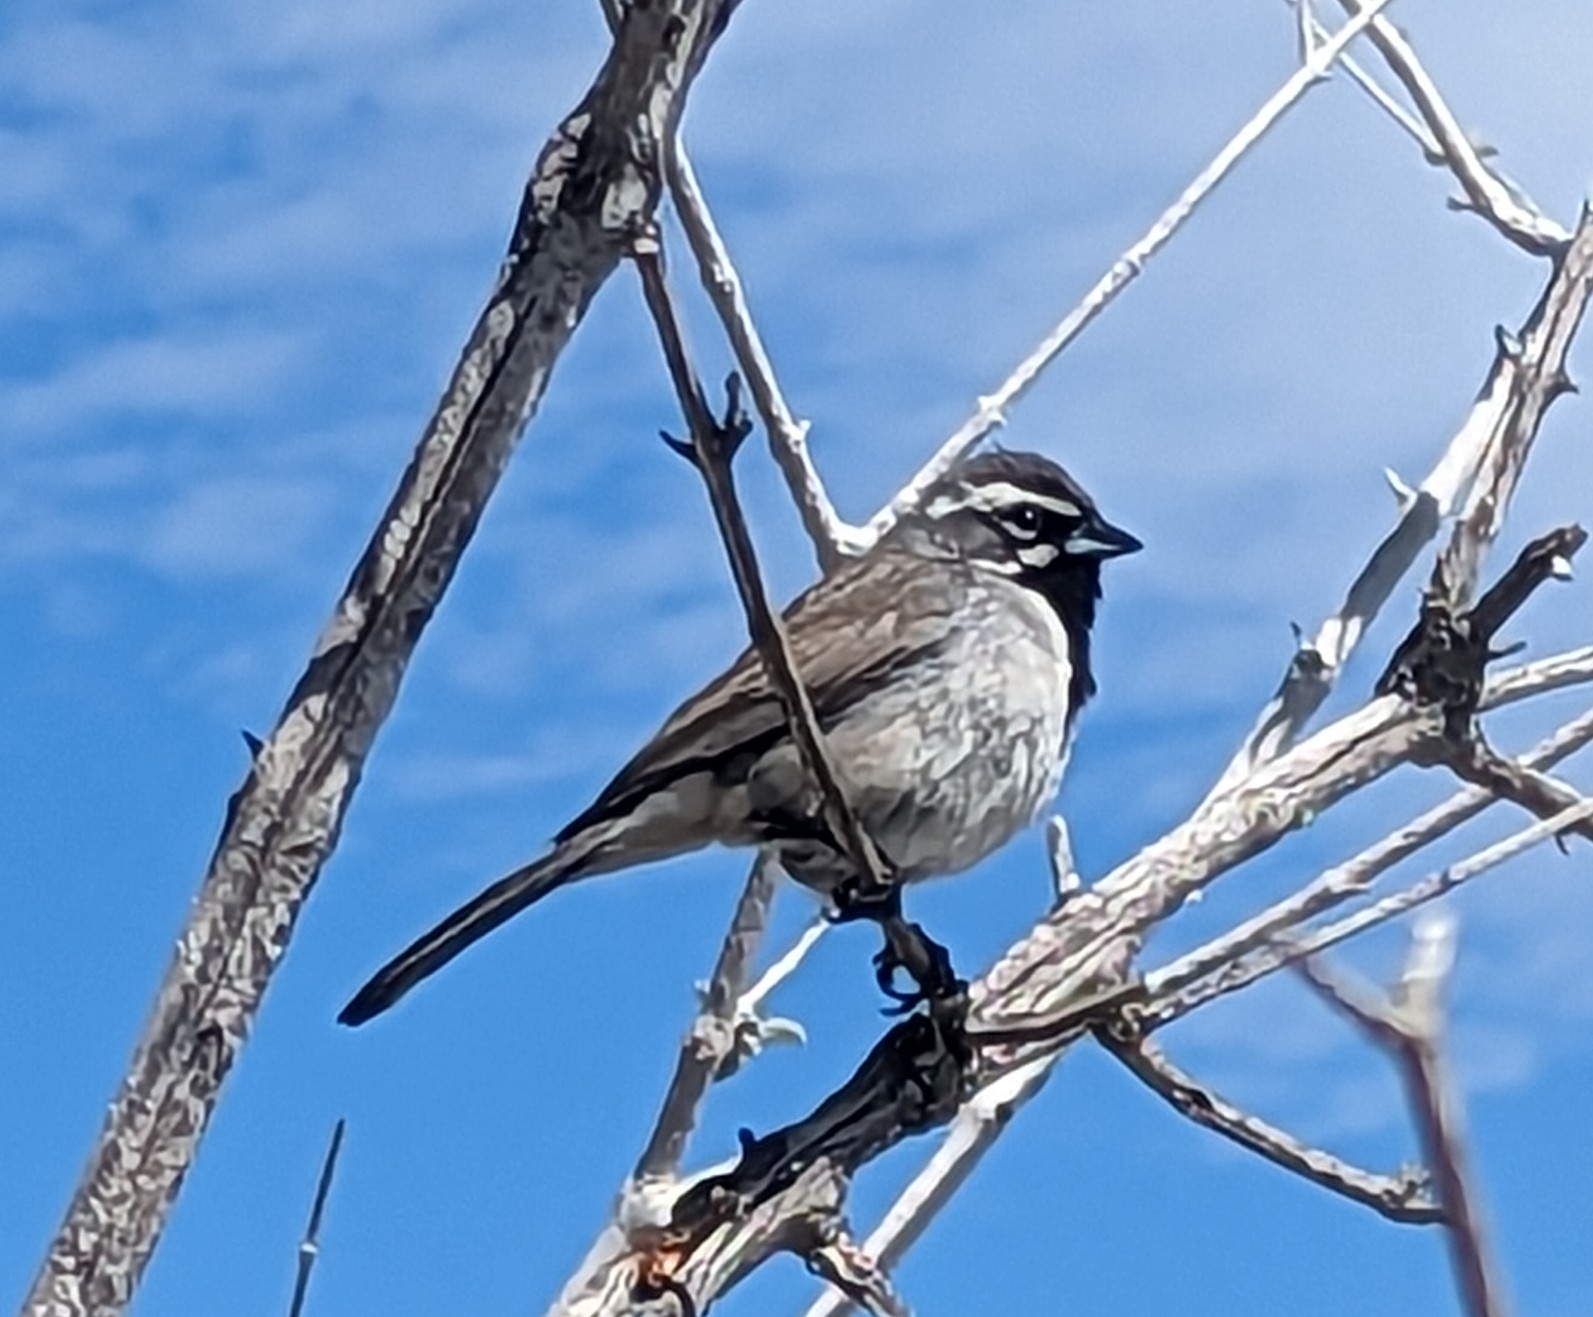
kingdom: Animalia
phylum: Chordata
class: Aves
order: Passeriformes
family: Passerellidae
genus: Amphispiza
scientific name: Amphispiza bilineata
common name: Black-throated sparrow
